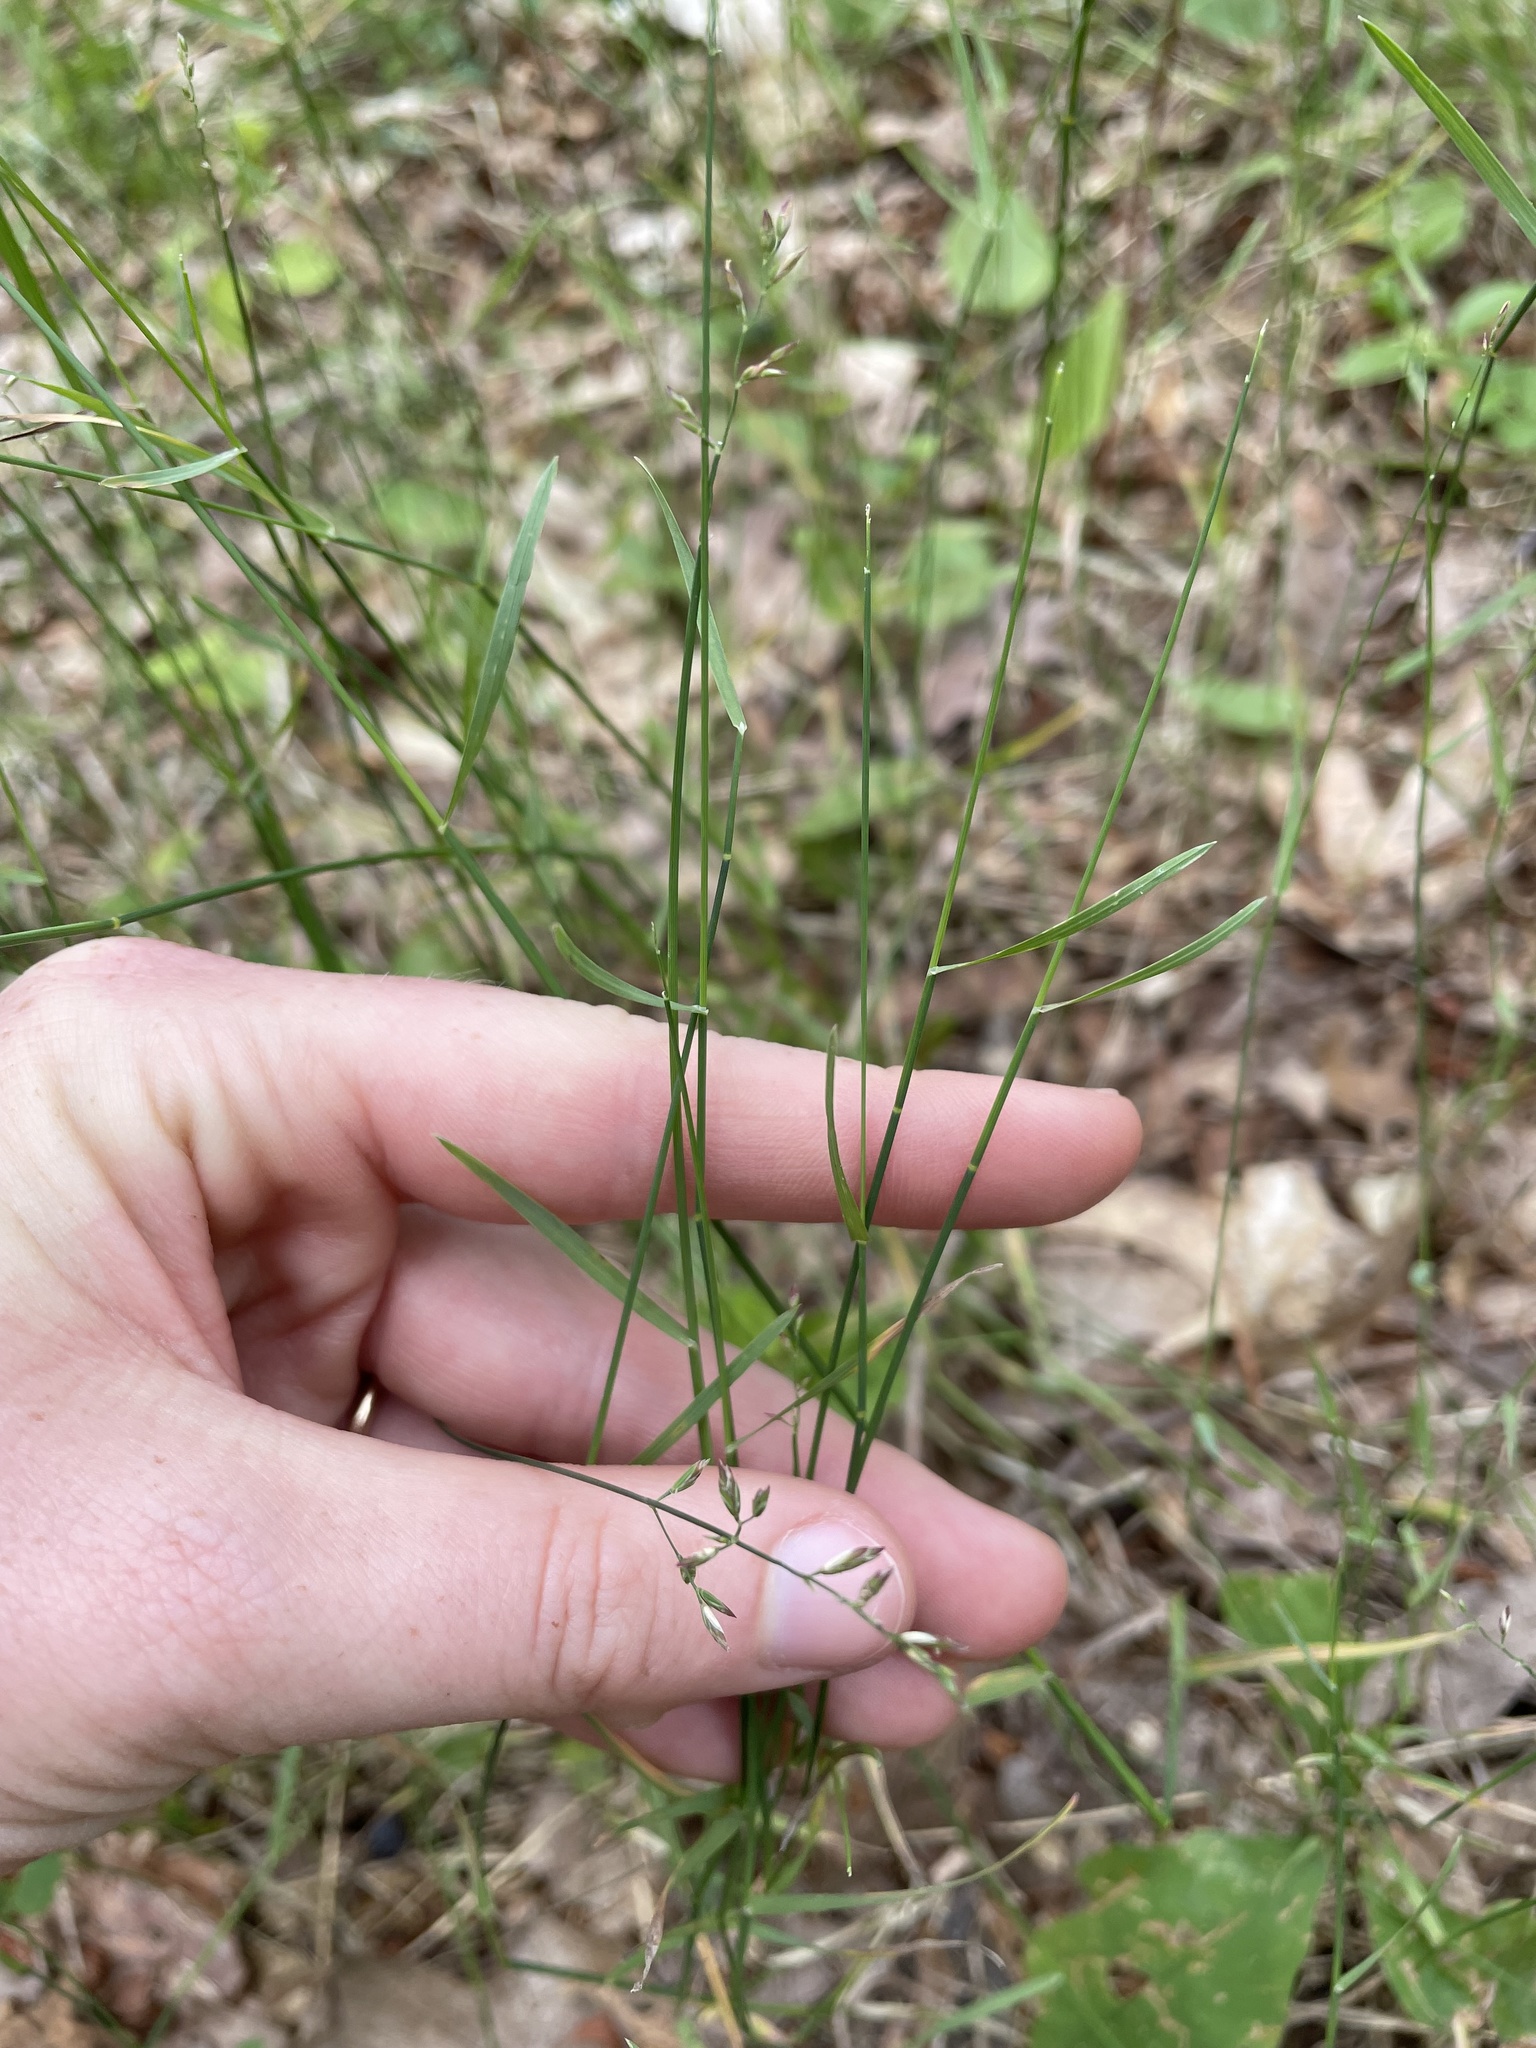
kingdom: Plantae
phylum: Tracheophyta
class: Liliopsida
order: Poales
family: Poaceae
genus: Poa
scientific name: Poa compressa
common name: Canada bluegrass
